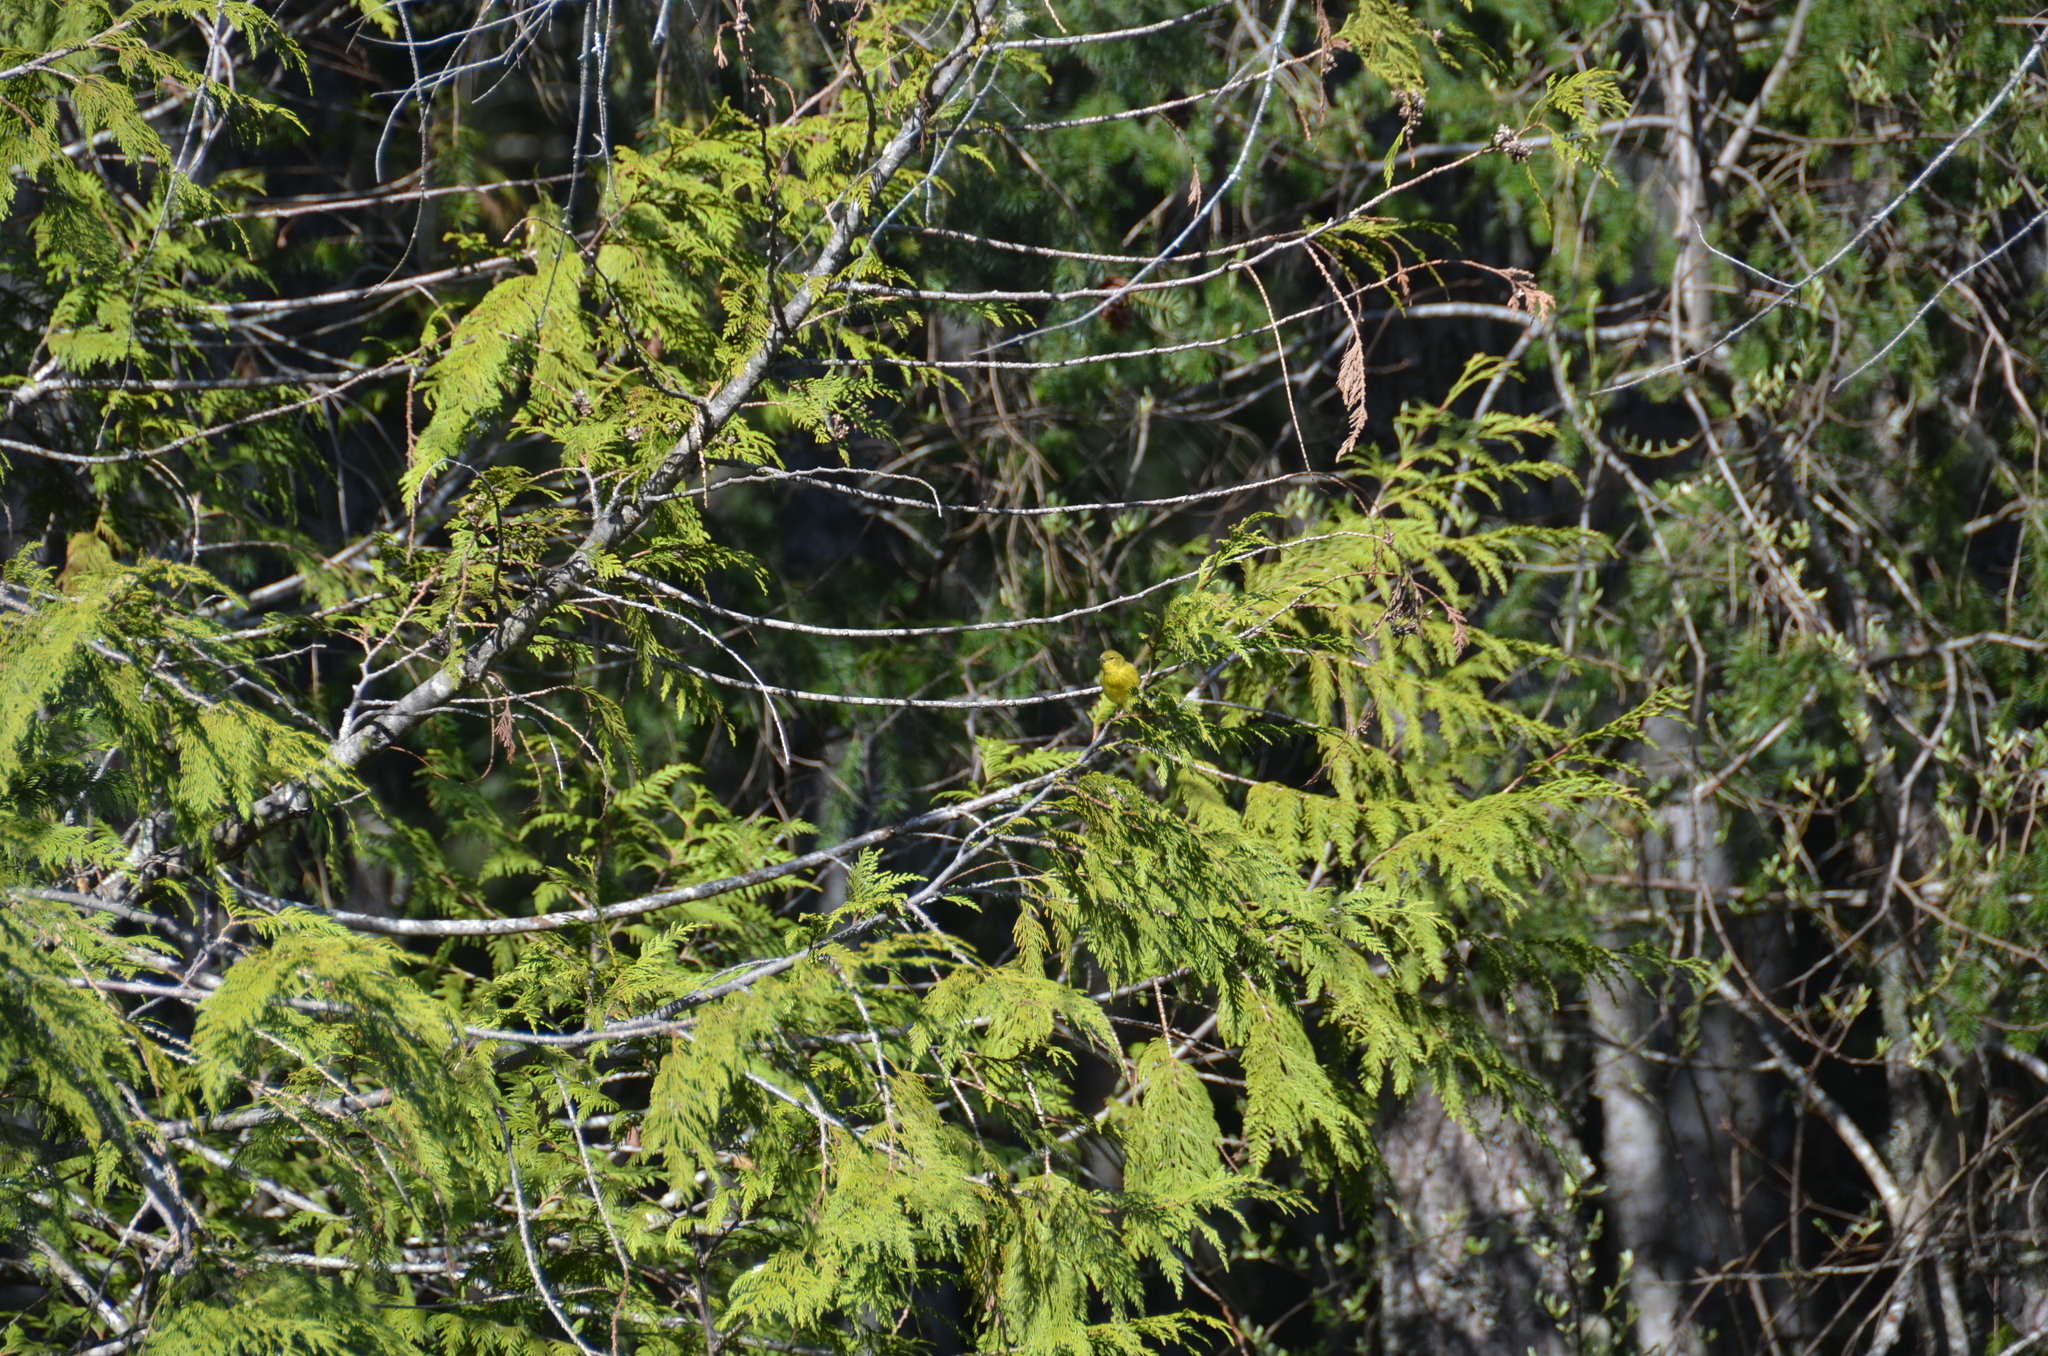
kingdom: Animalia
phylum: Chordata
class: Aves
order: Passeriformes
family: Parulidae
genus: Leiothlypis
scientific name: Leiothlypis celata
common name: Orange-crowned warbler
